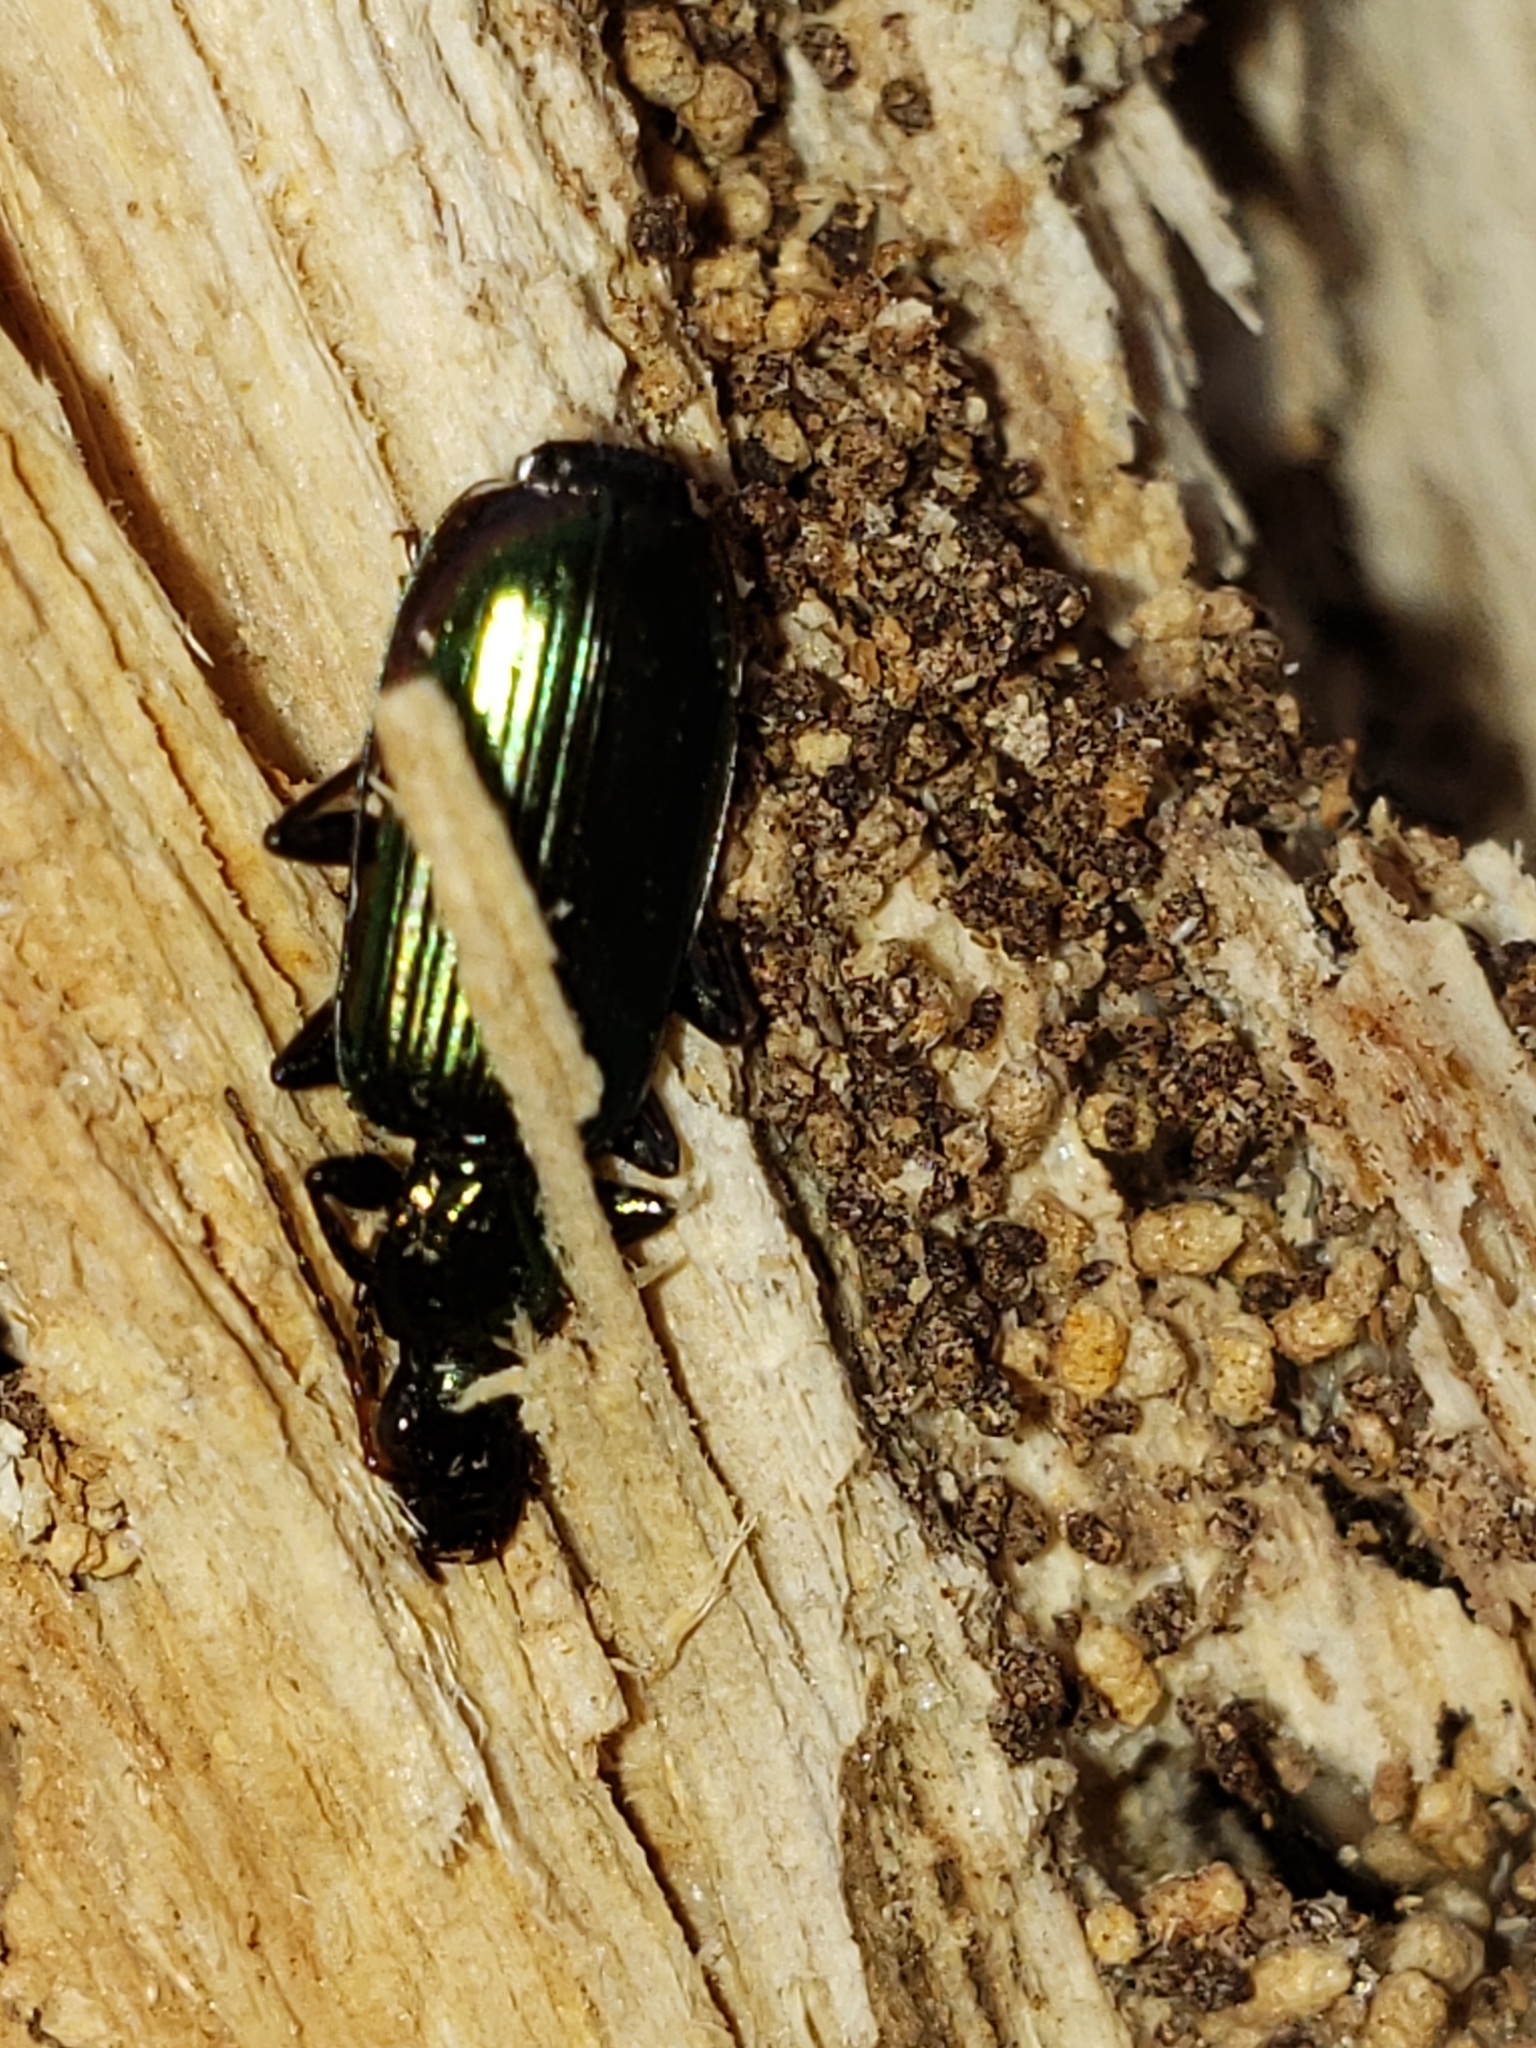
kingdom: Animalia
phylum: Arthropoda
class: Insecta
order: Coleoptera
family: Carabidae
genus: Calleida
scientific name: Calleida viridipennis
